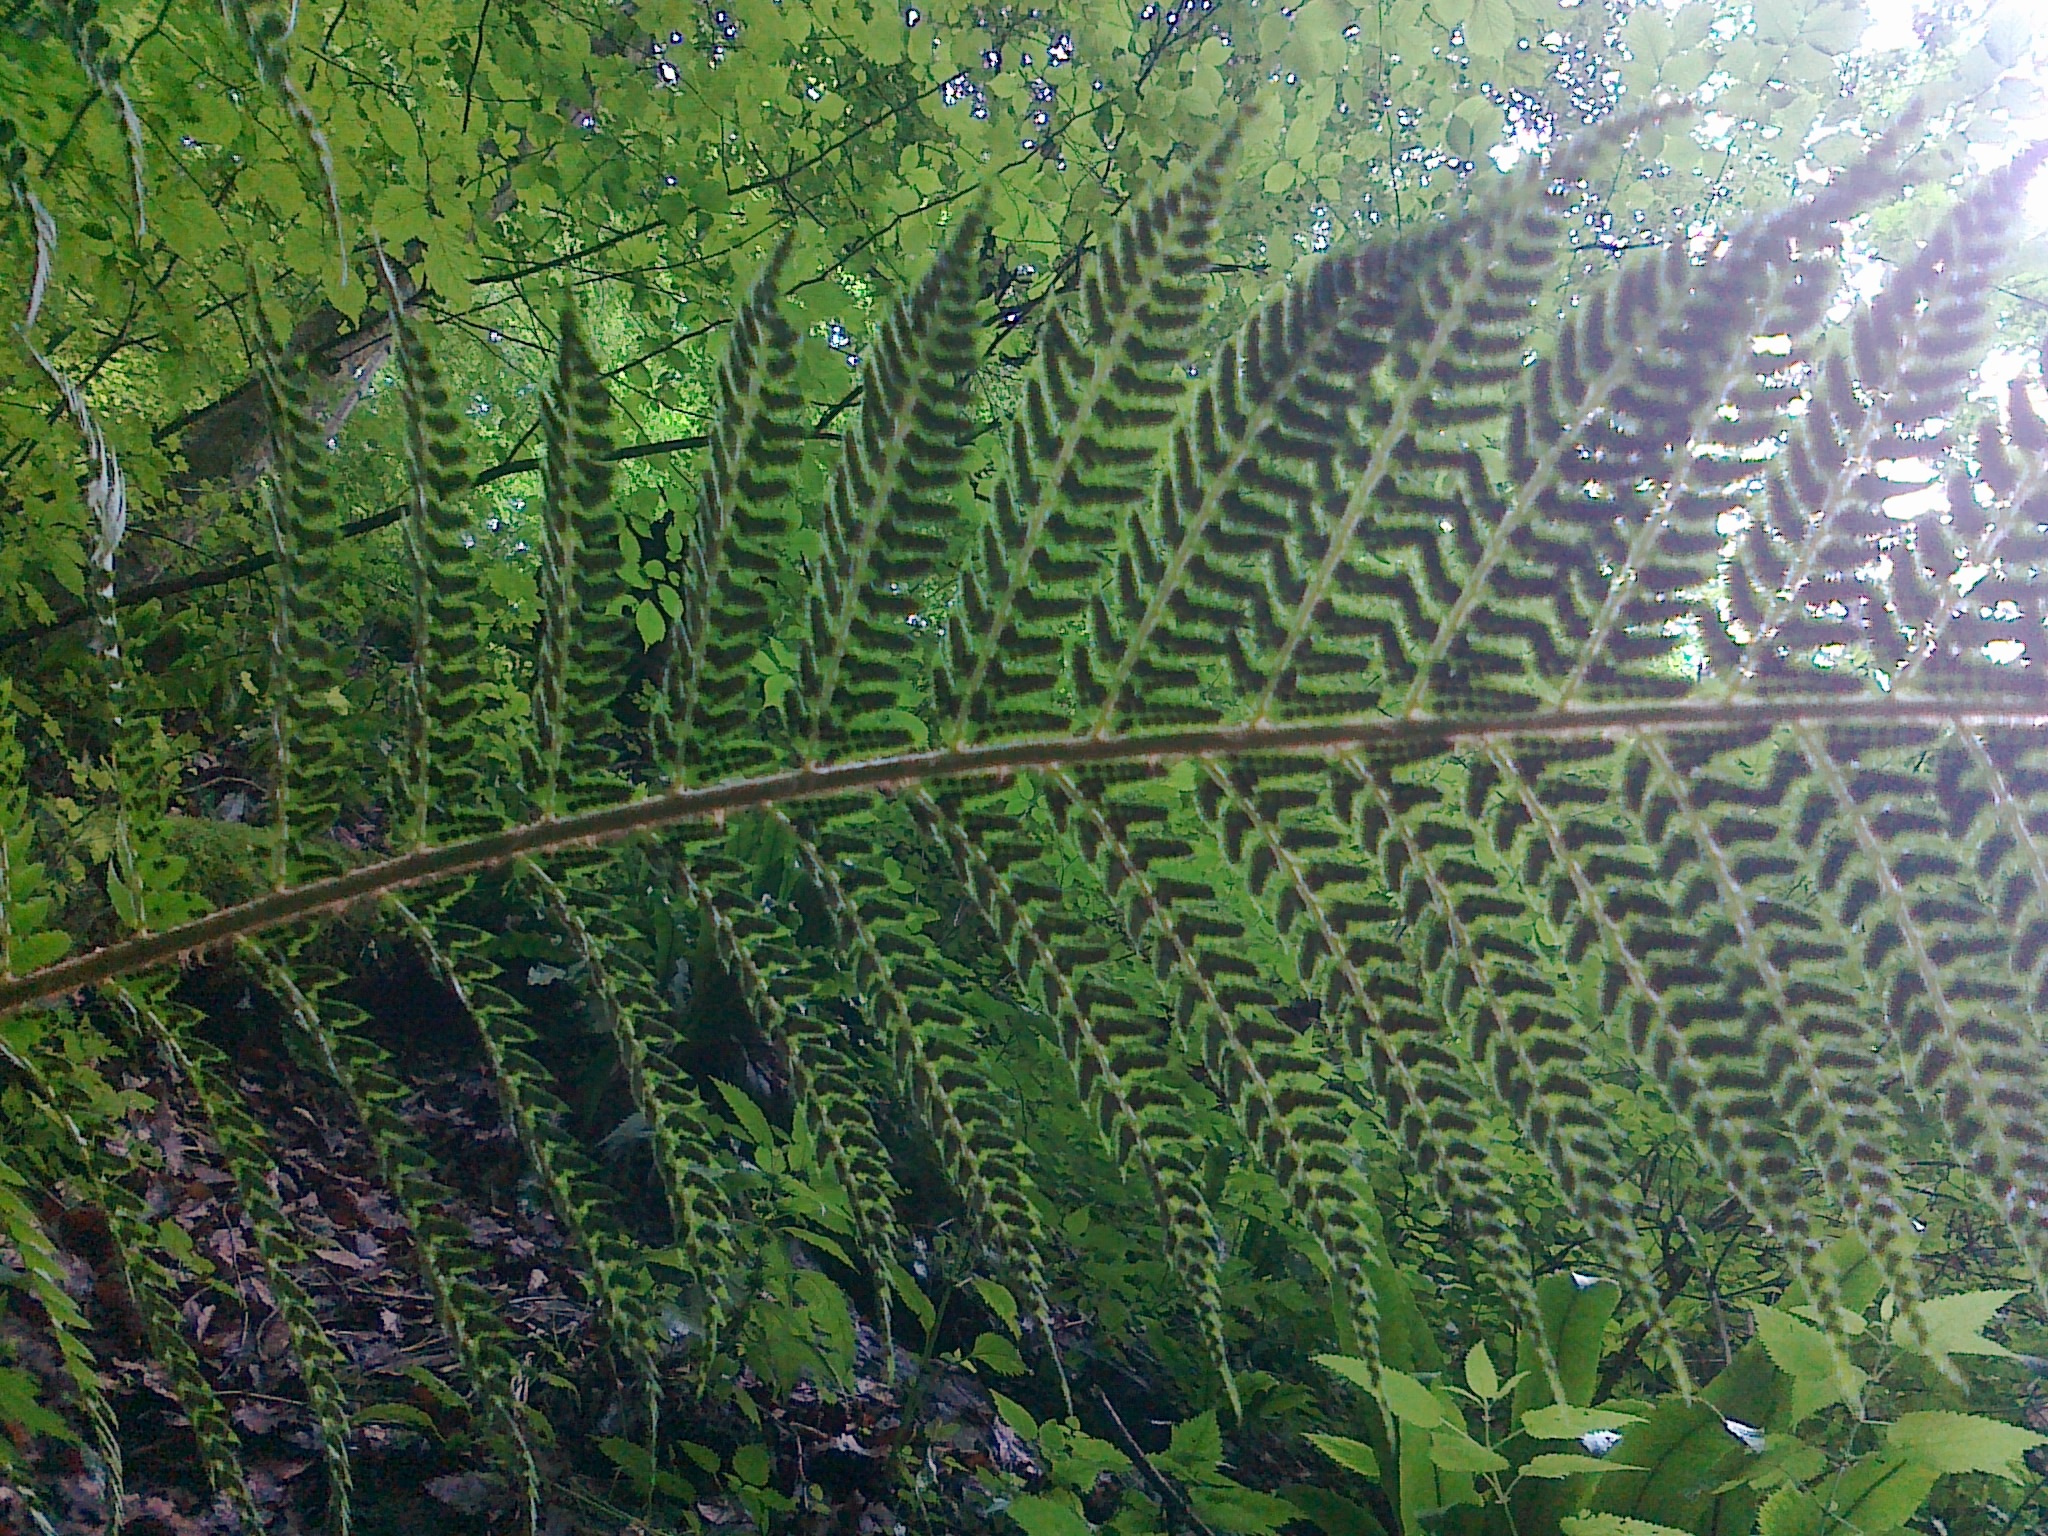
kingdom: Plantae
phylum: Tracheophyta
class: Polypodiopsida
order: Polypodiales
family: Dryopteridaceae
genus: Polystichum
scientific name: Polystichum aculeatum
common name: Hard shield-fern
